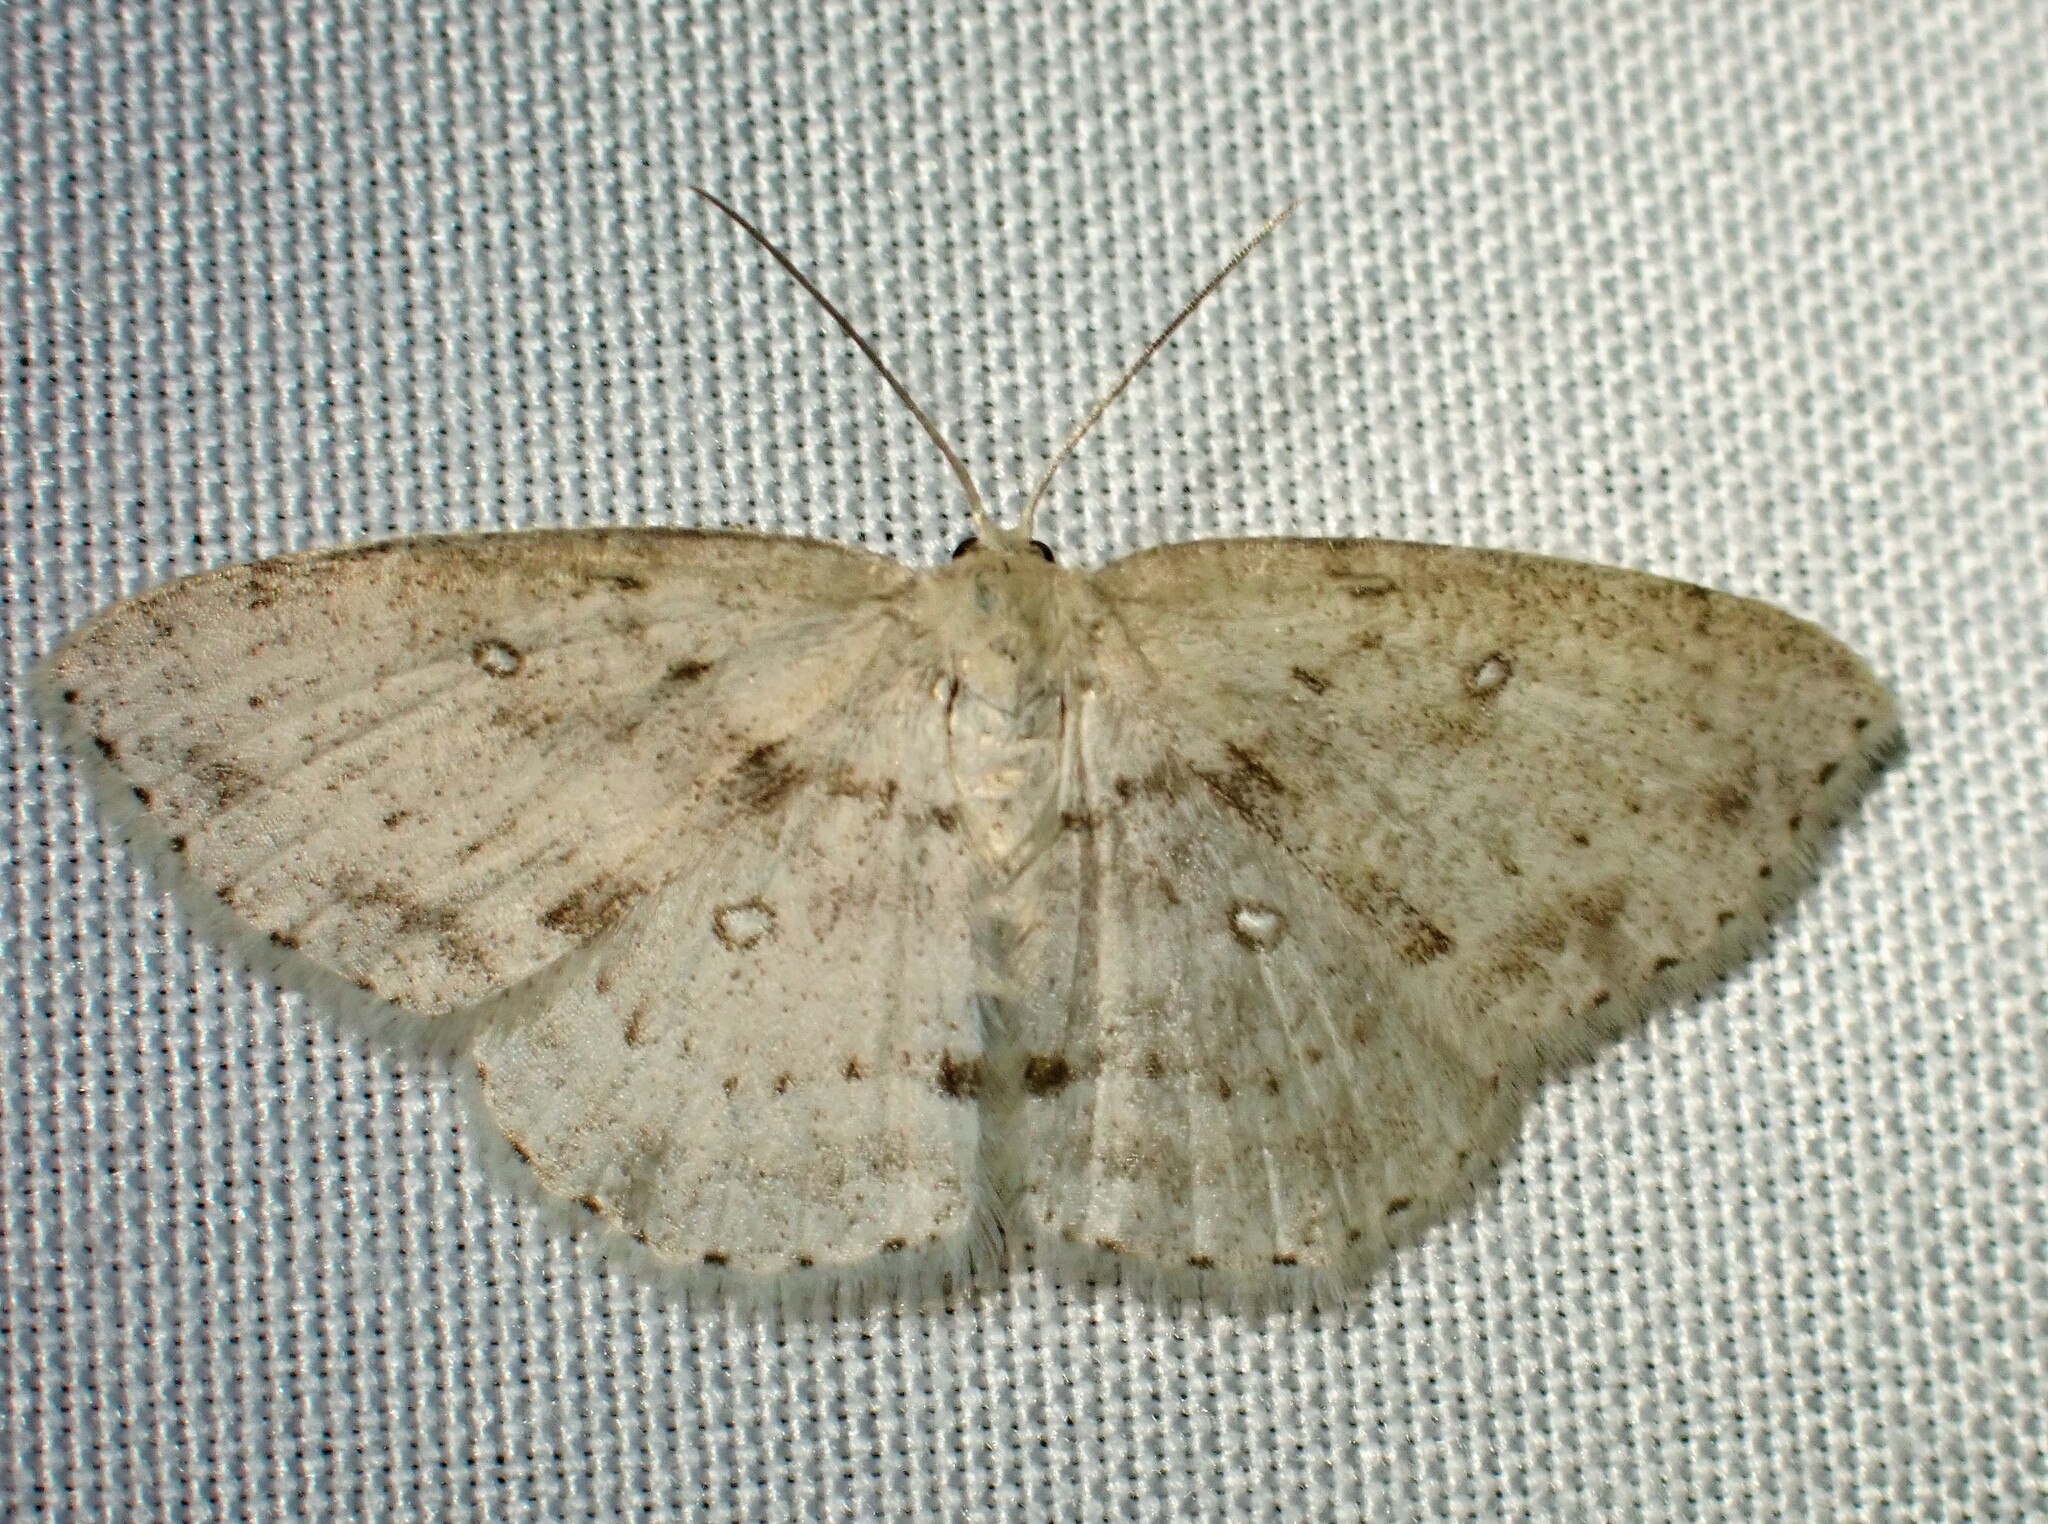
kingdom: Animalia
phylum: Arthropoda
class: Insecta
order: Lepidoptera
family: Geometridae
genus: Cyclophora
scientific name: Cyclophora pendulinaria
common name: Sweet fern geometer
